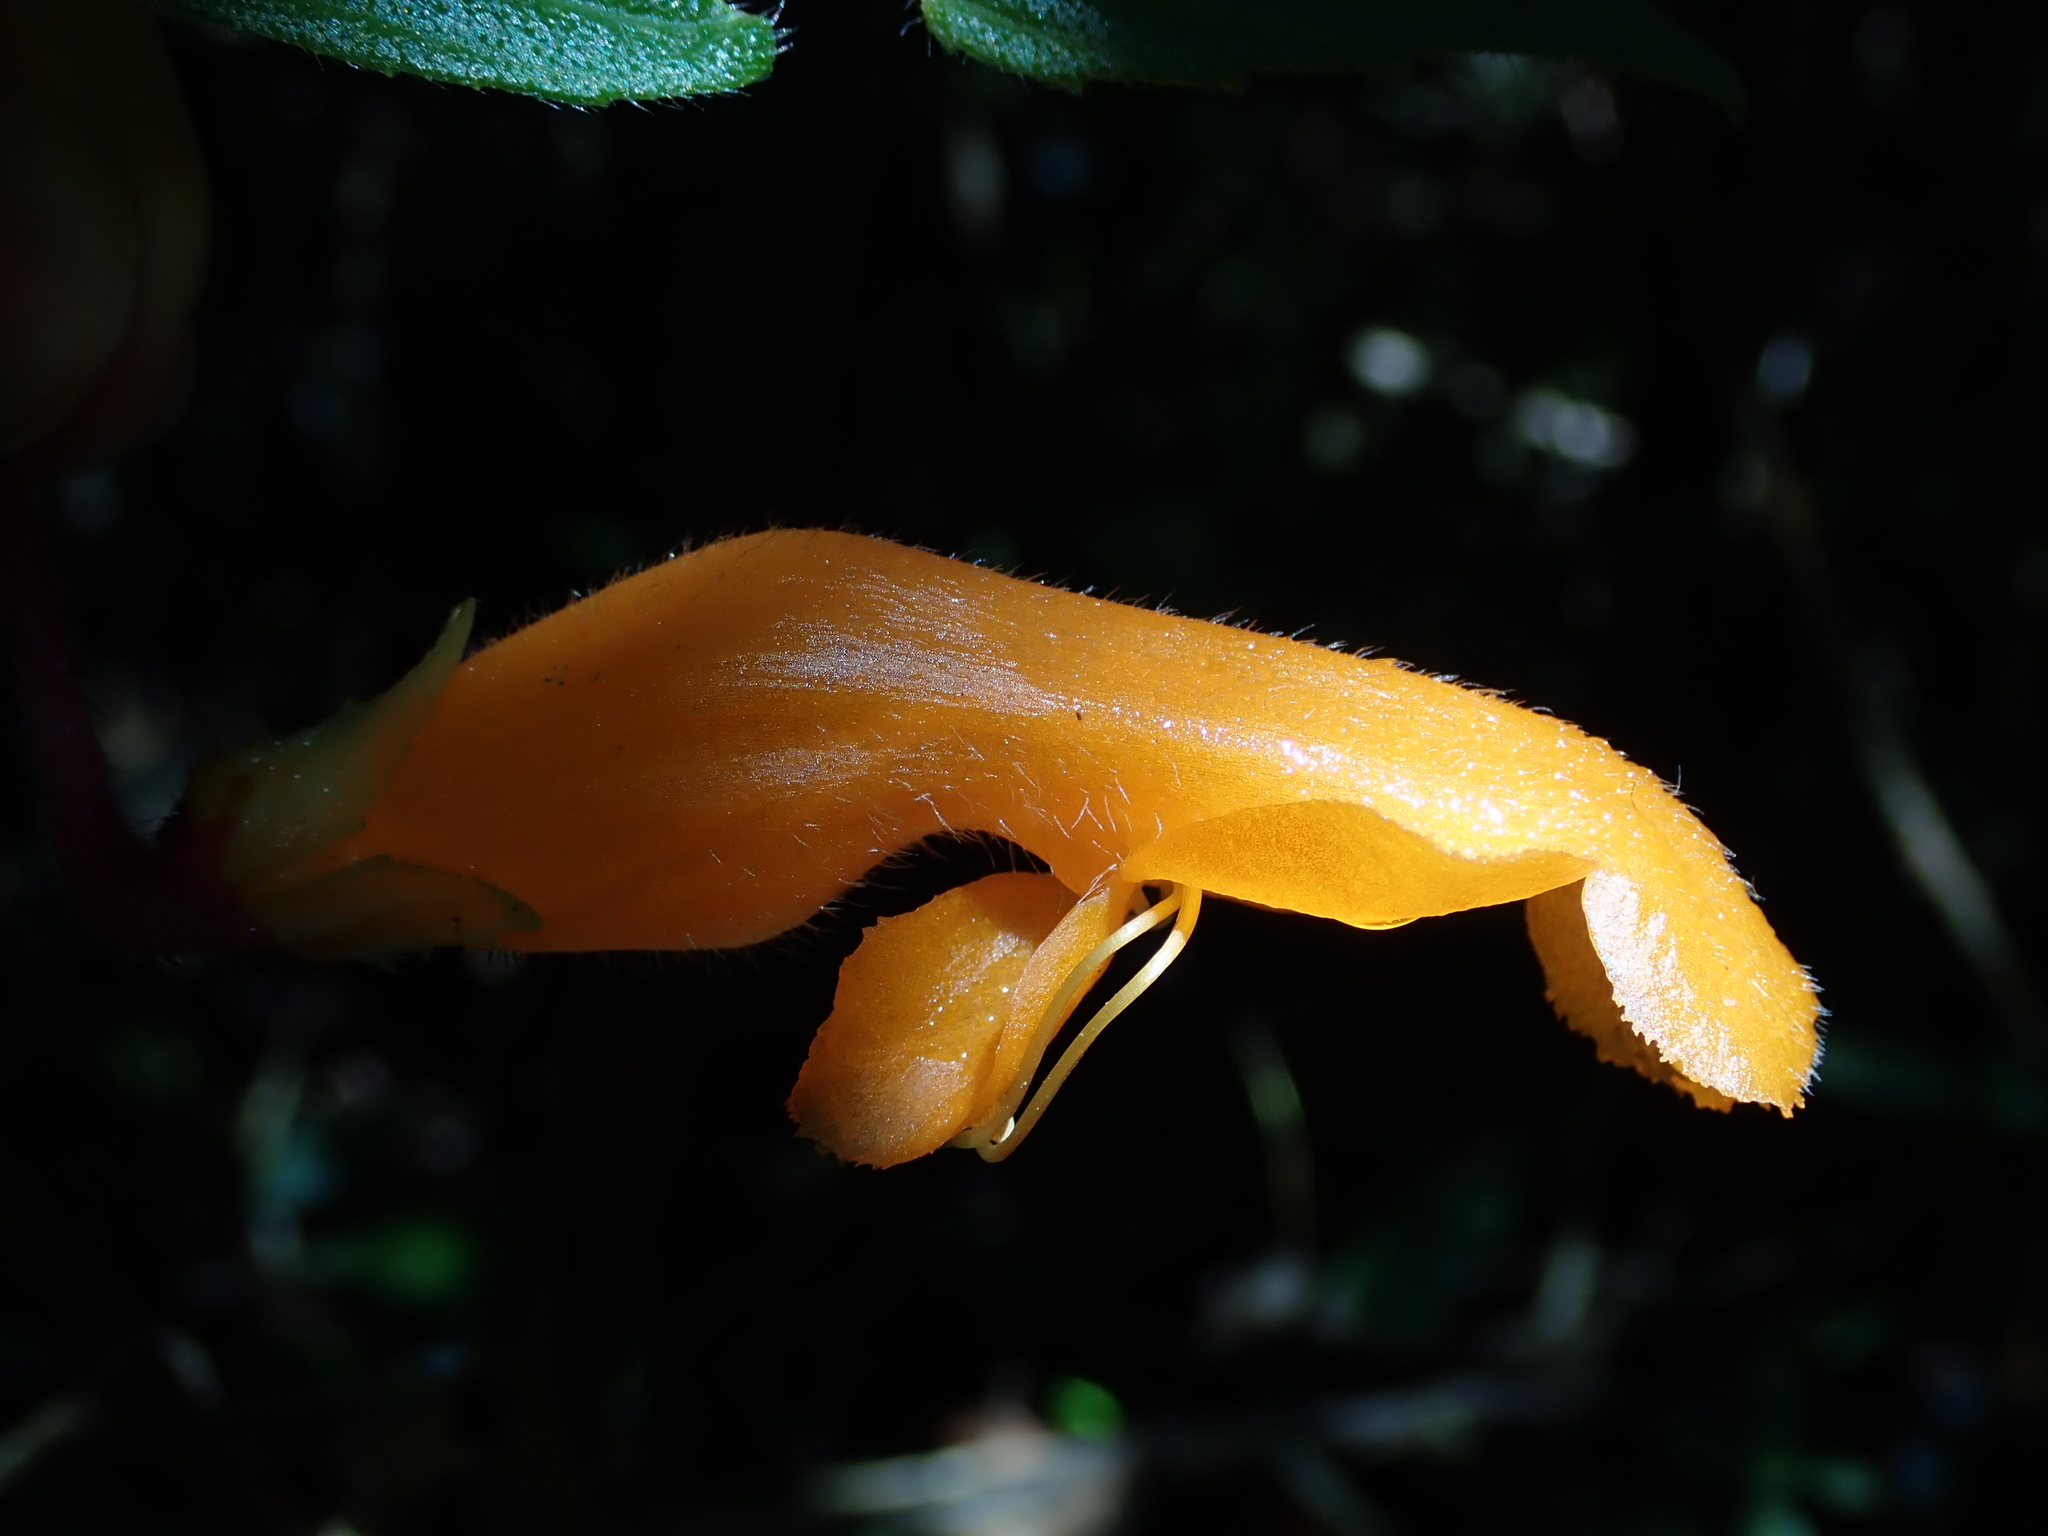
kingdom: Plantae
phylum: Tracheophyta
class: Magnoliopsida
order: Lamiales
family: Gesneriaceae
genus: Columnea
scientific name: Columnea strigosa
